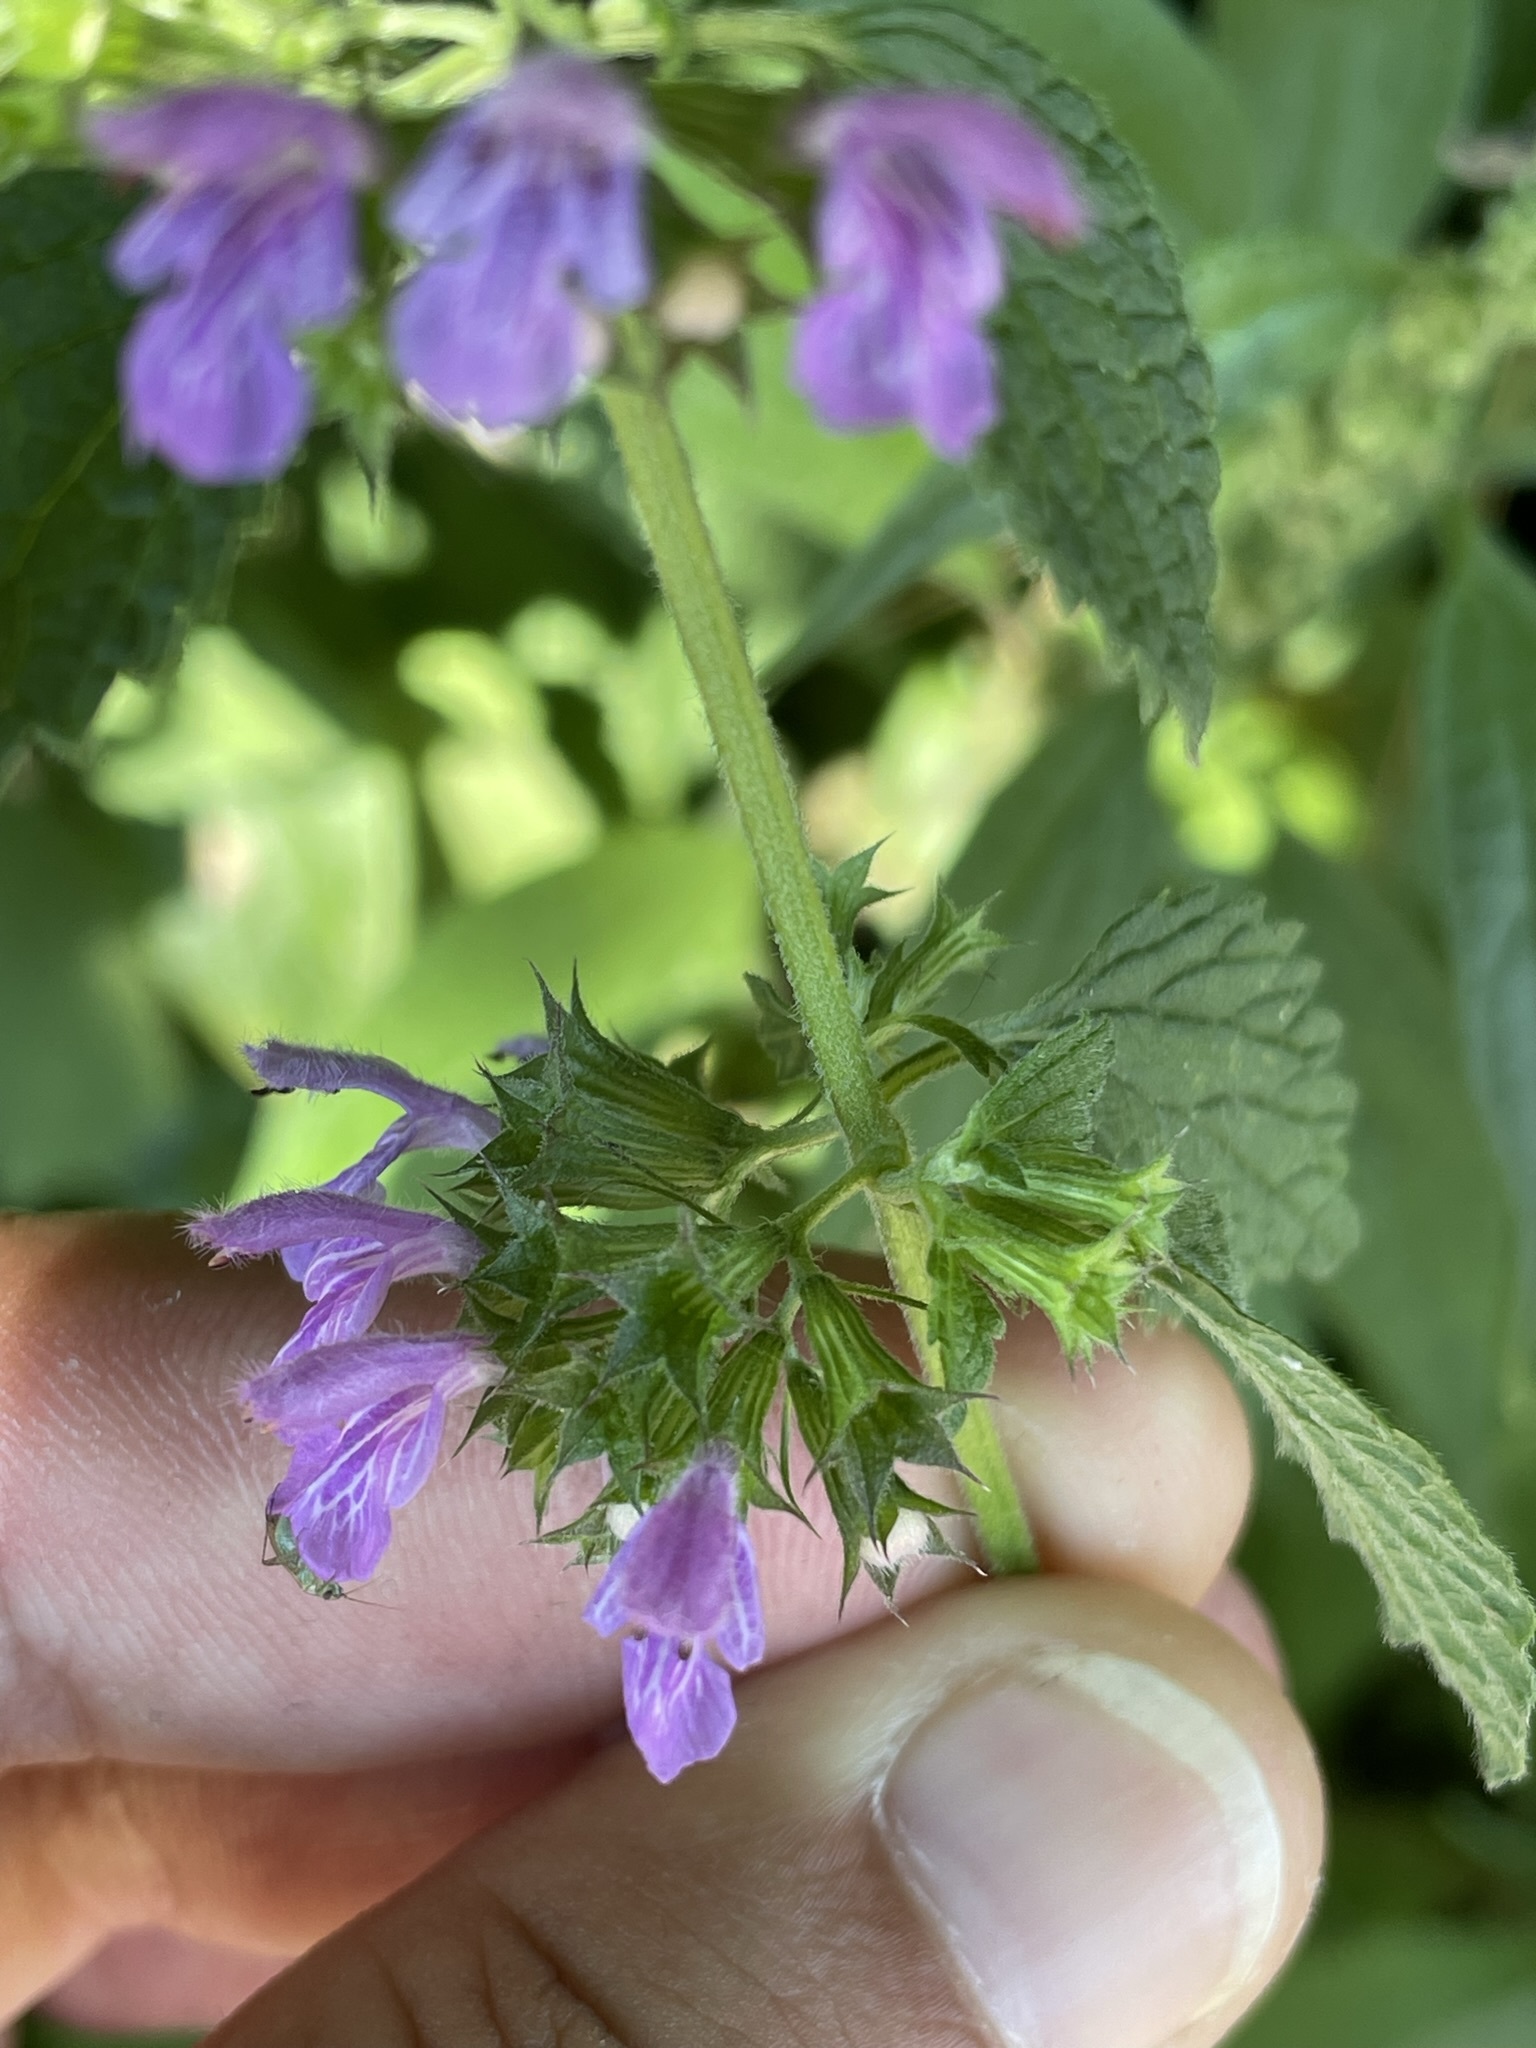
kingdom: Plantae
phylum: Tracheophyta
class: Magnoliopsida
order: Lamiales
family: Lamiaceae
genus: Ballota
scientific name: Ballota nigra
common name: Black horehound
